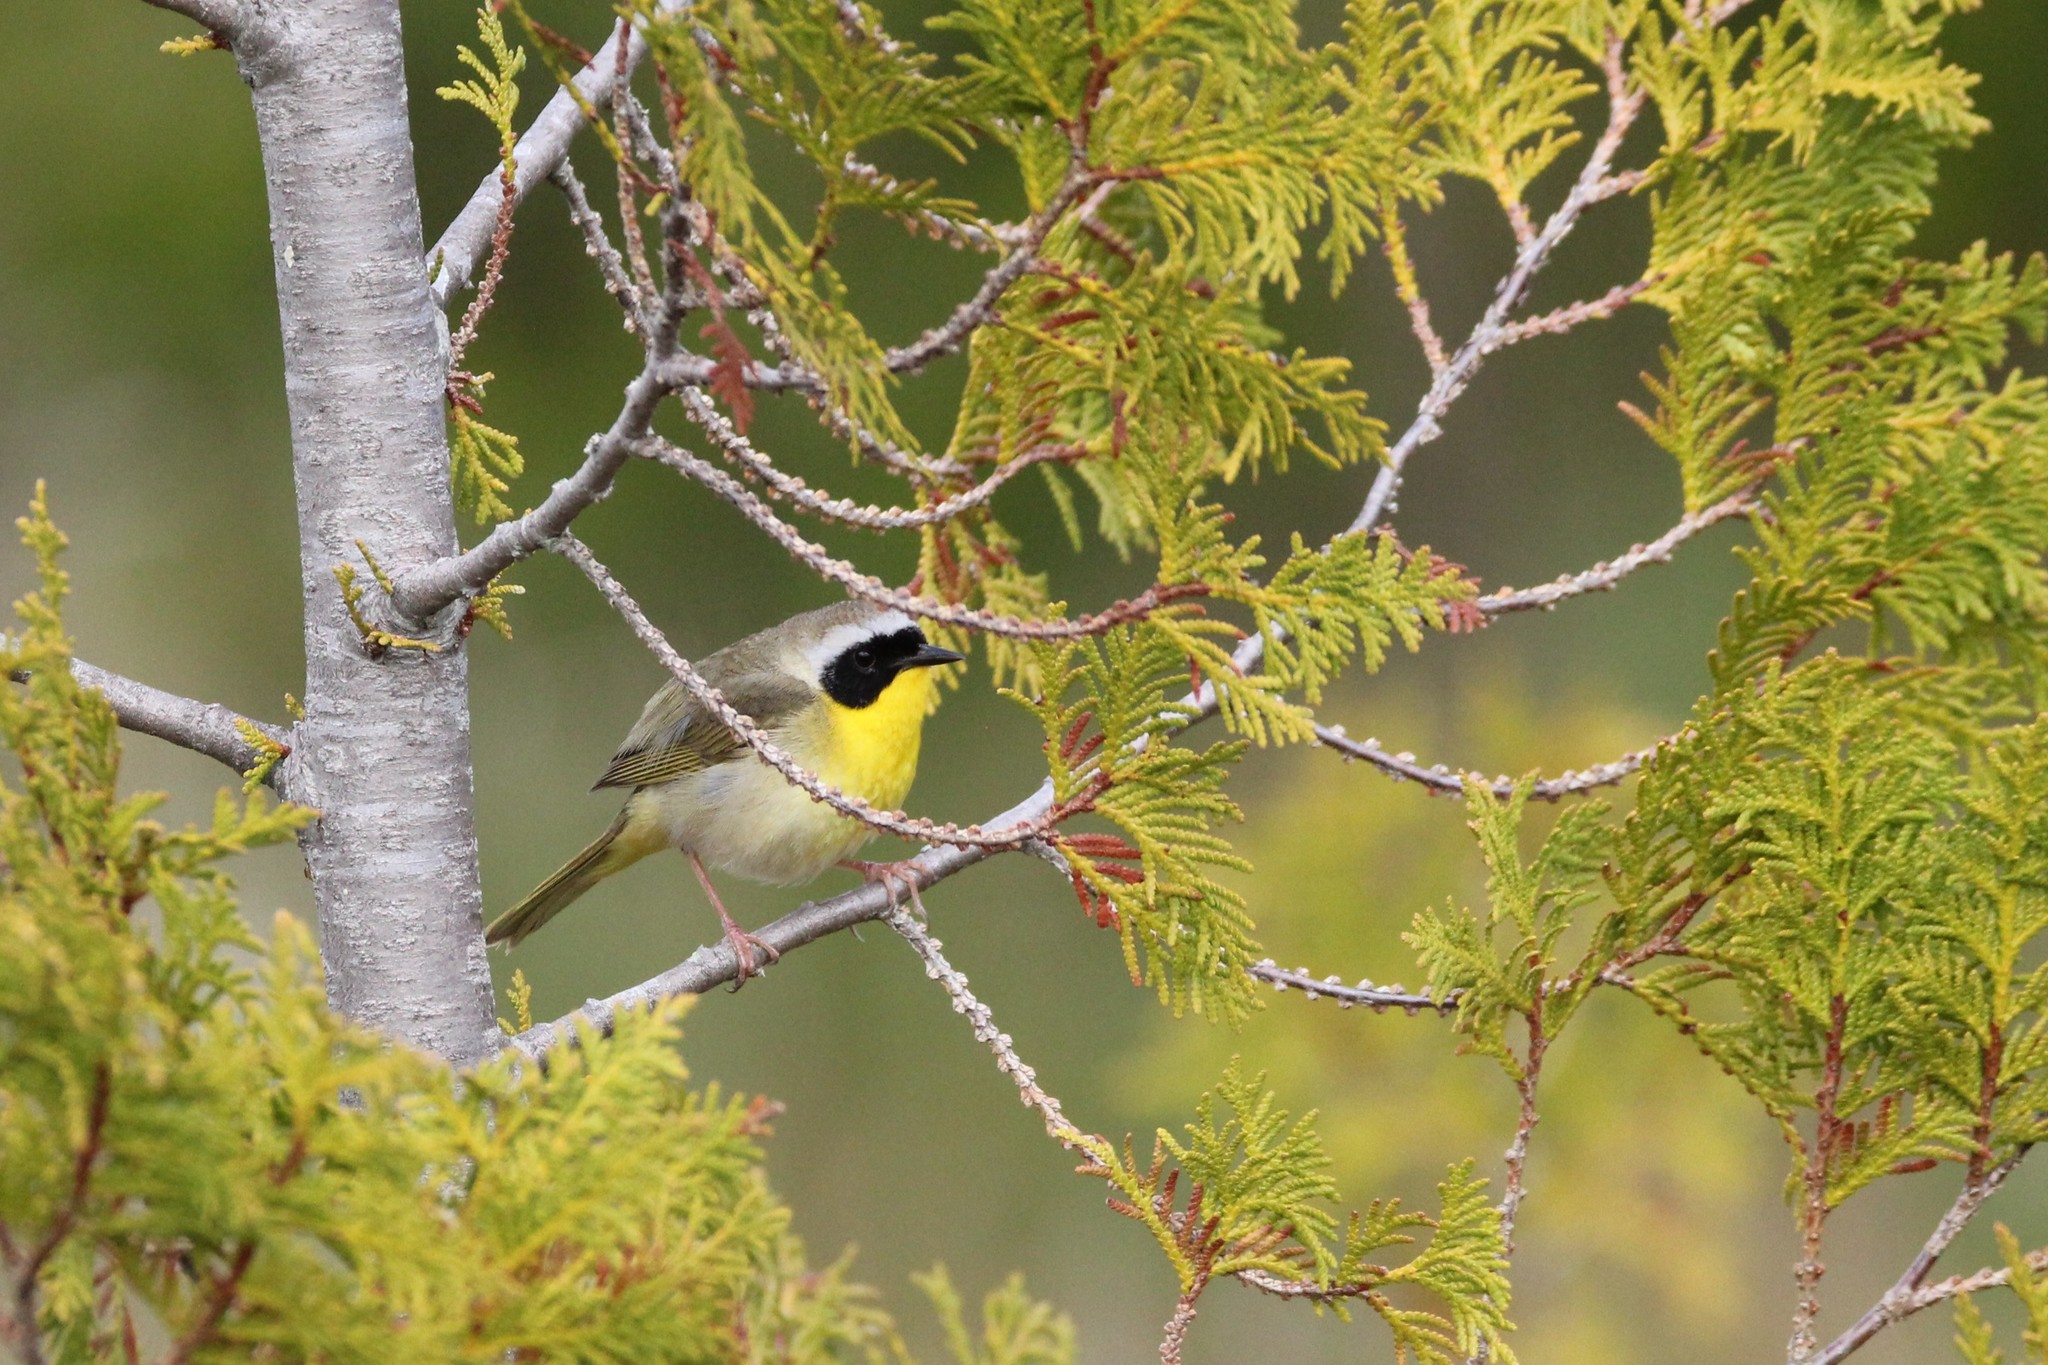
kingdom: Animalia
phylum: Chordata
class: Aves
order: Passeriformes
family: Parulidae
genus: Geothlypis
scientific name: Geothlypis trichas
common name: Common yellowthroat
